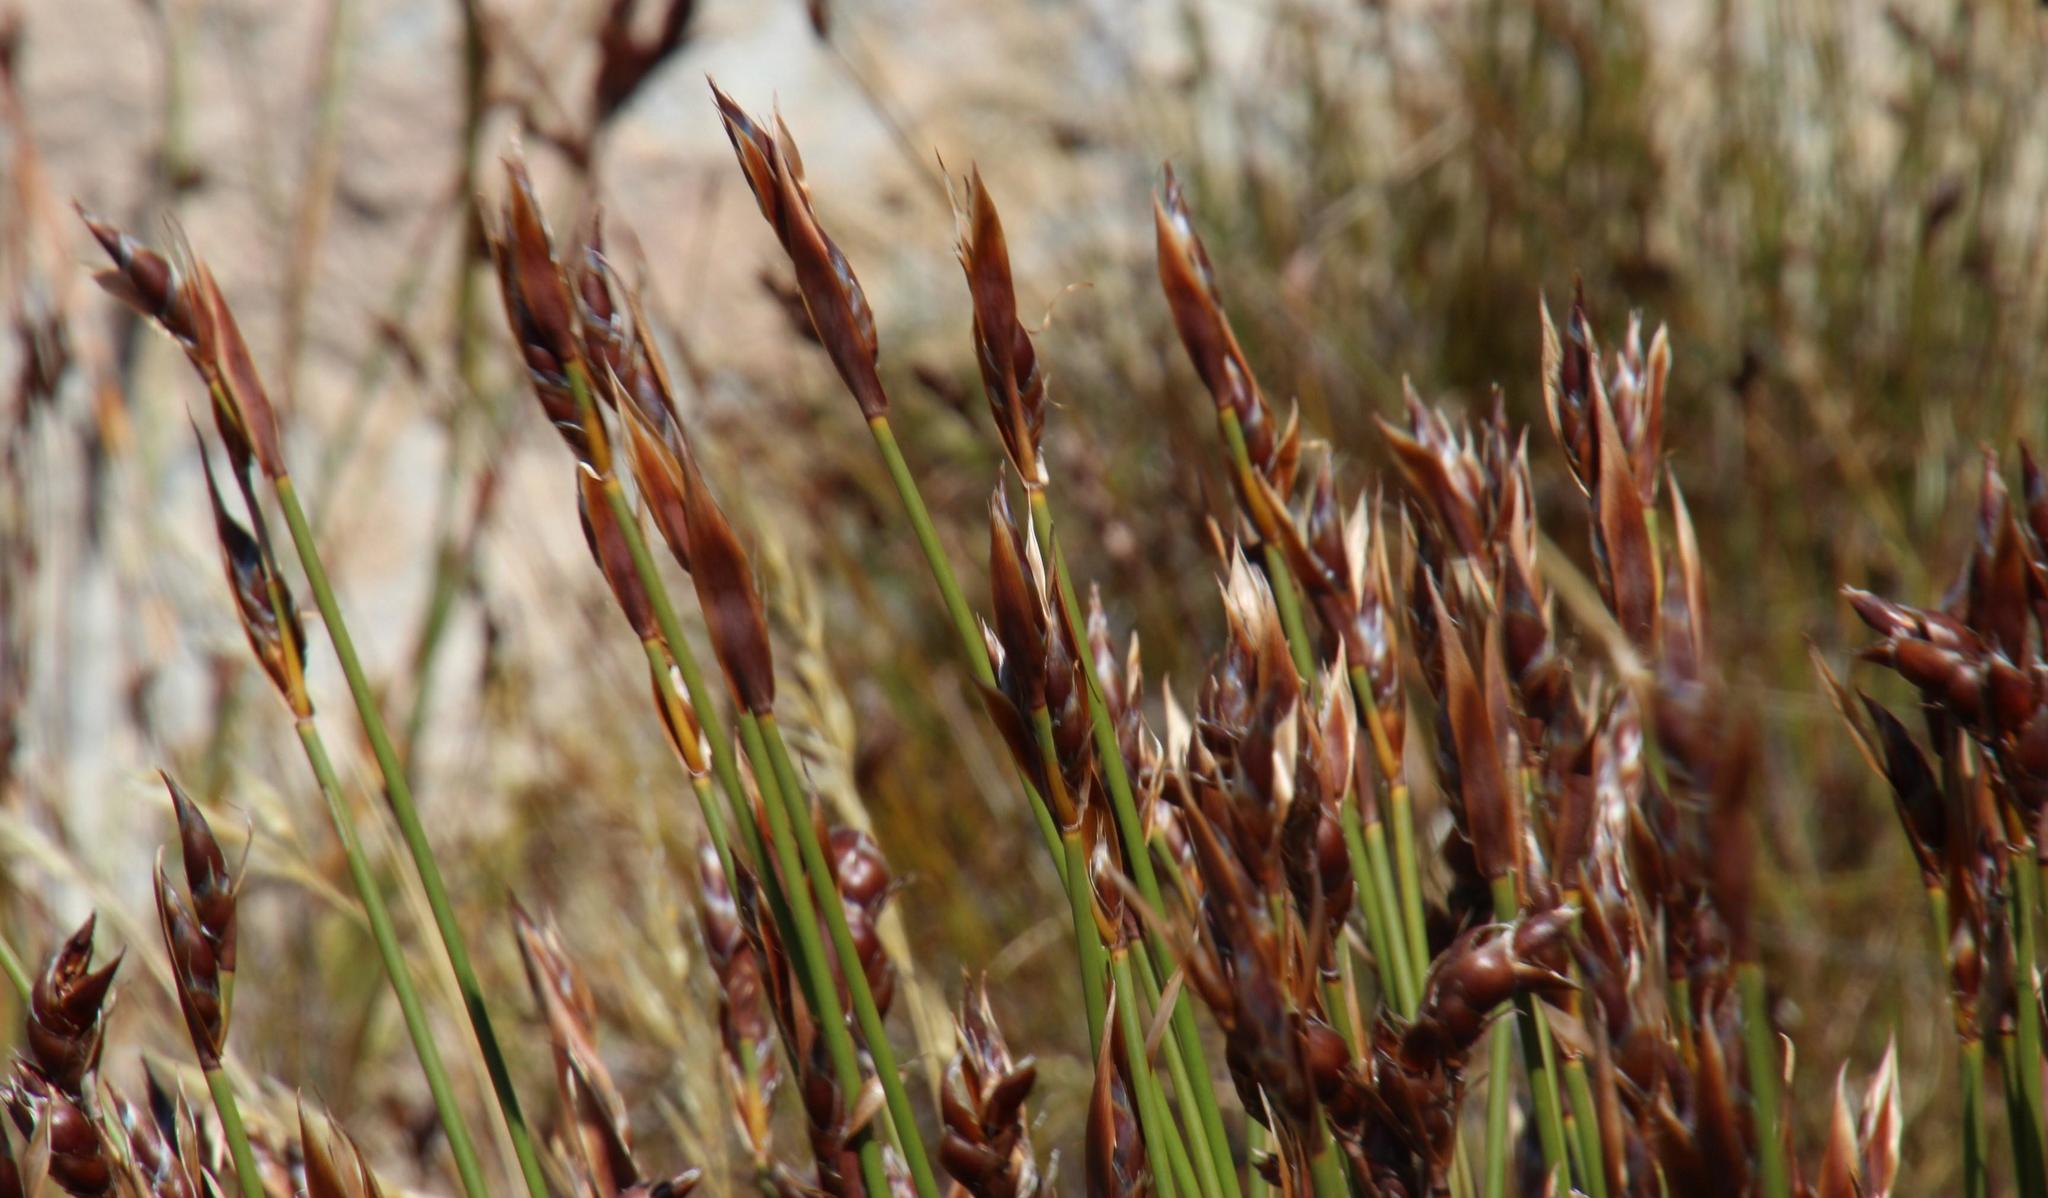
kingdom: Plantae
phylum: Tracheophyta
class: Liliopsida
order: Poales
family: Restionaceae
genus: Cannomois
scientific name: Cannomois primosii
